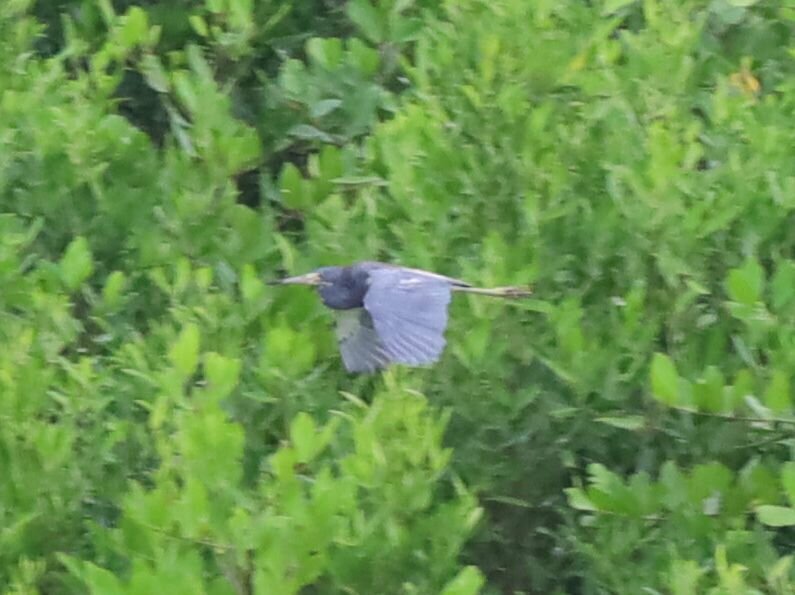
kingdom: Animalia
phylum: Chordata
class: Aves
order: Pelecaniformes
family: Ardeidae
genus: Egretta
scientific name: Egretta tricolor
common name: Tricolored heron
